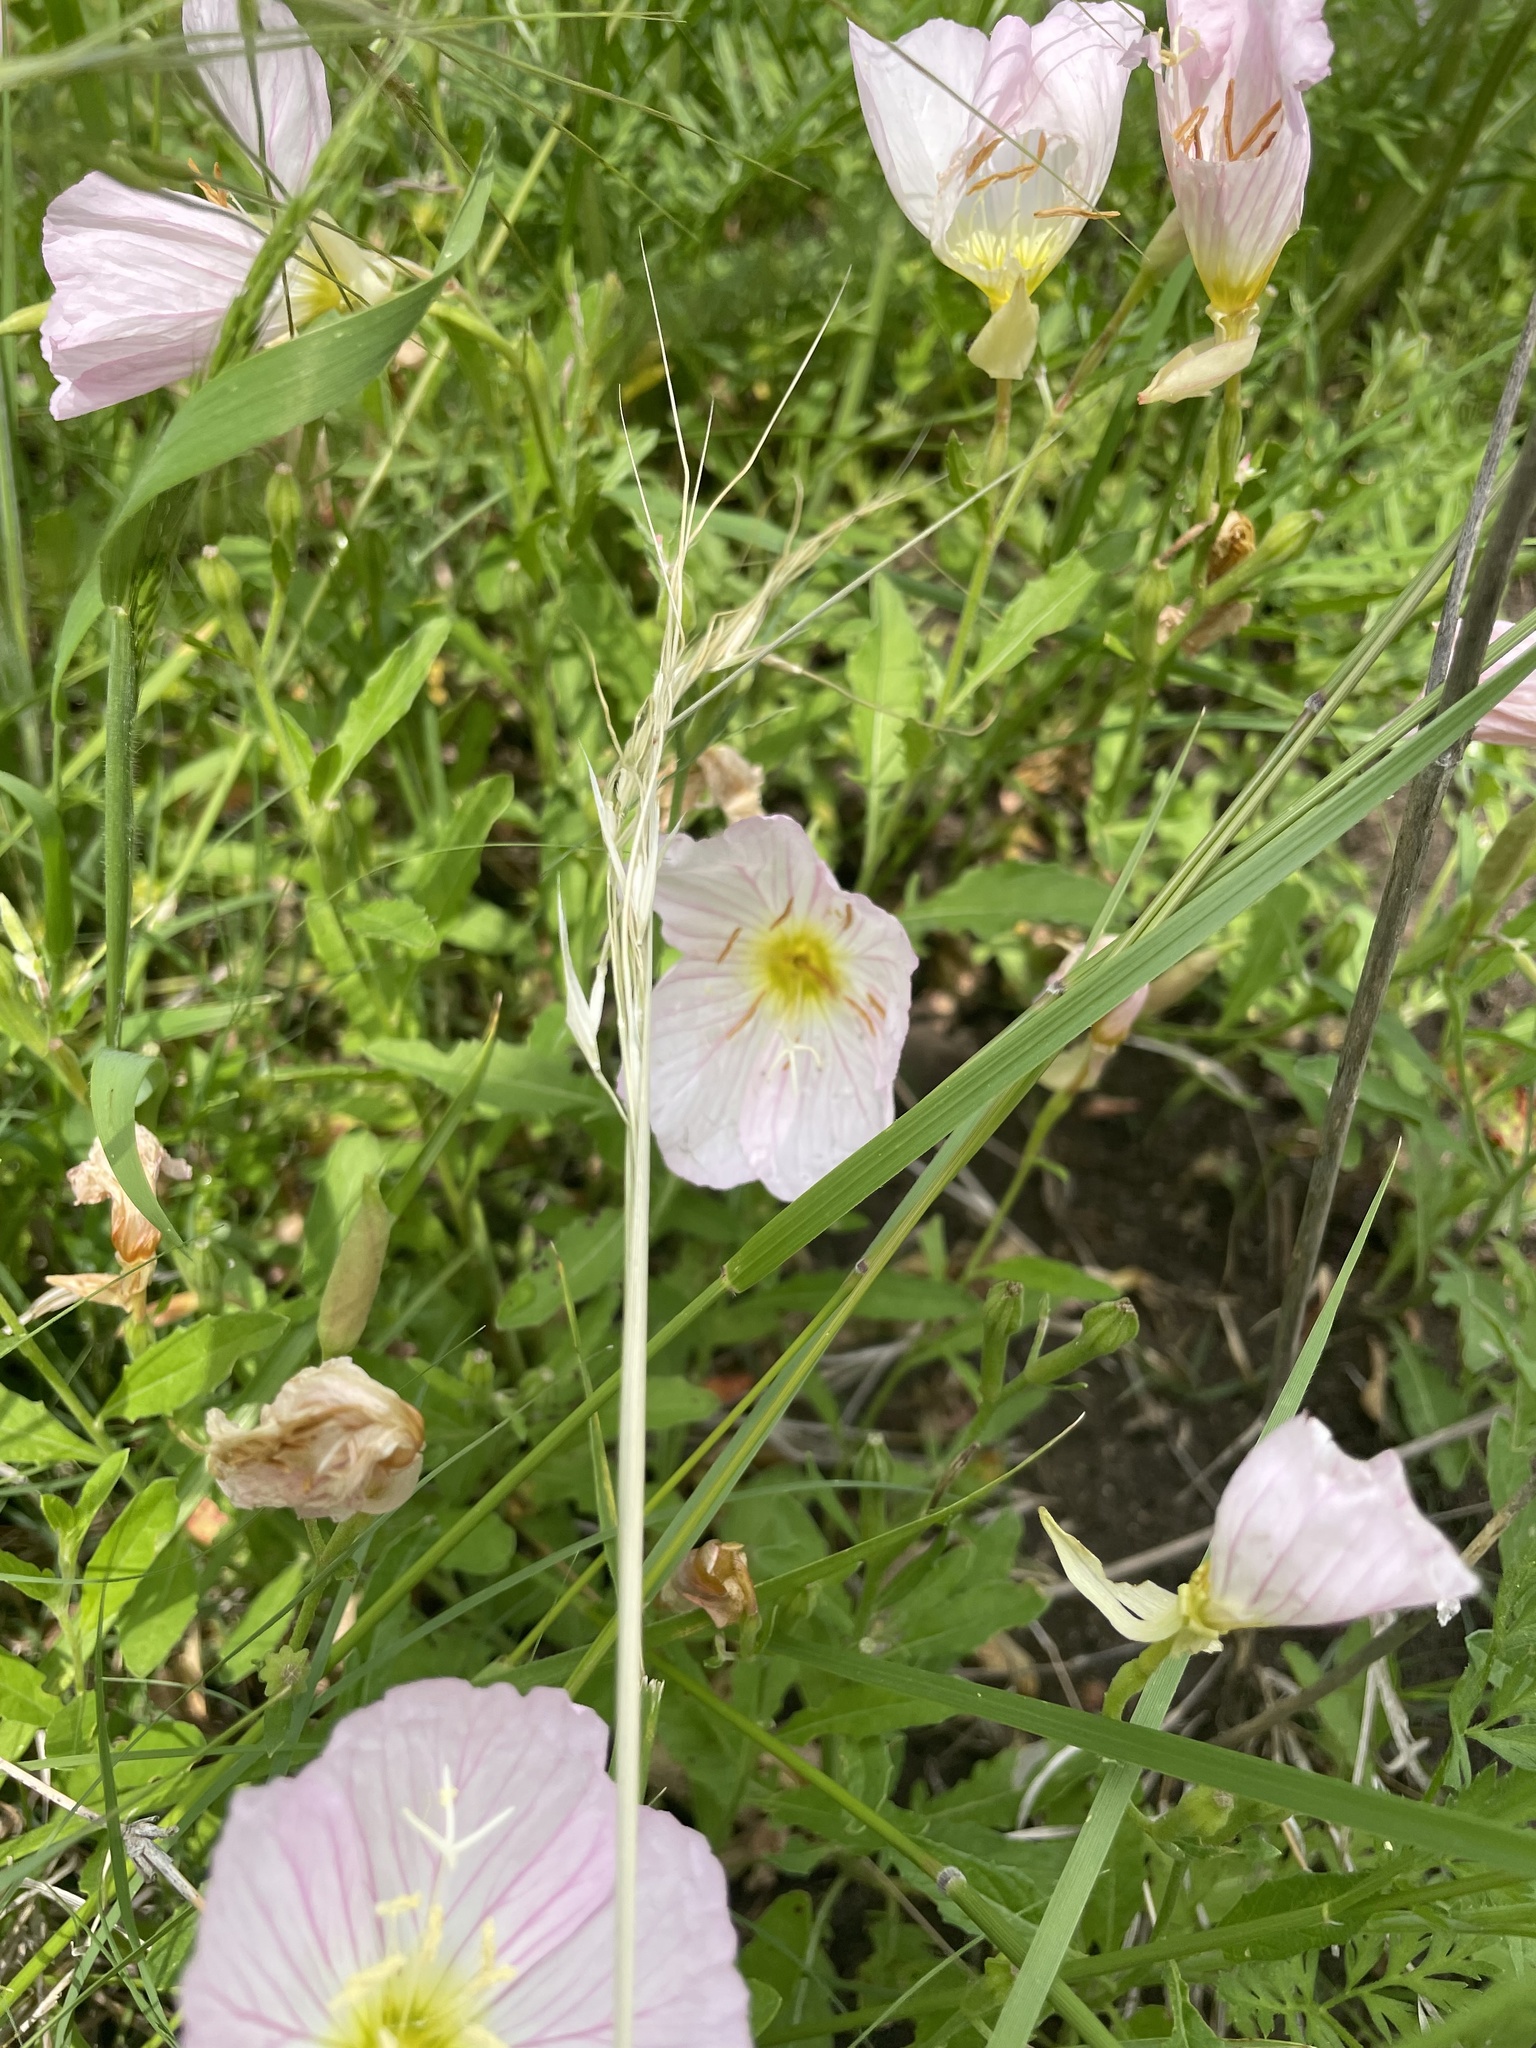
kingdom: Plantae
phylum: Tracheophyta
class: Magnoliopsida
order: Myrtales
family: Onagraceae
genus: Oenothera
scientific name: Oenothera speciosa
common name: White evening-primrose
